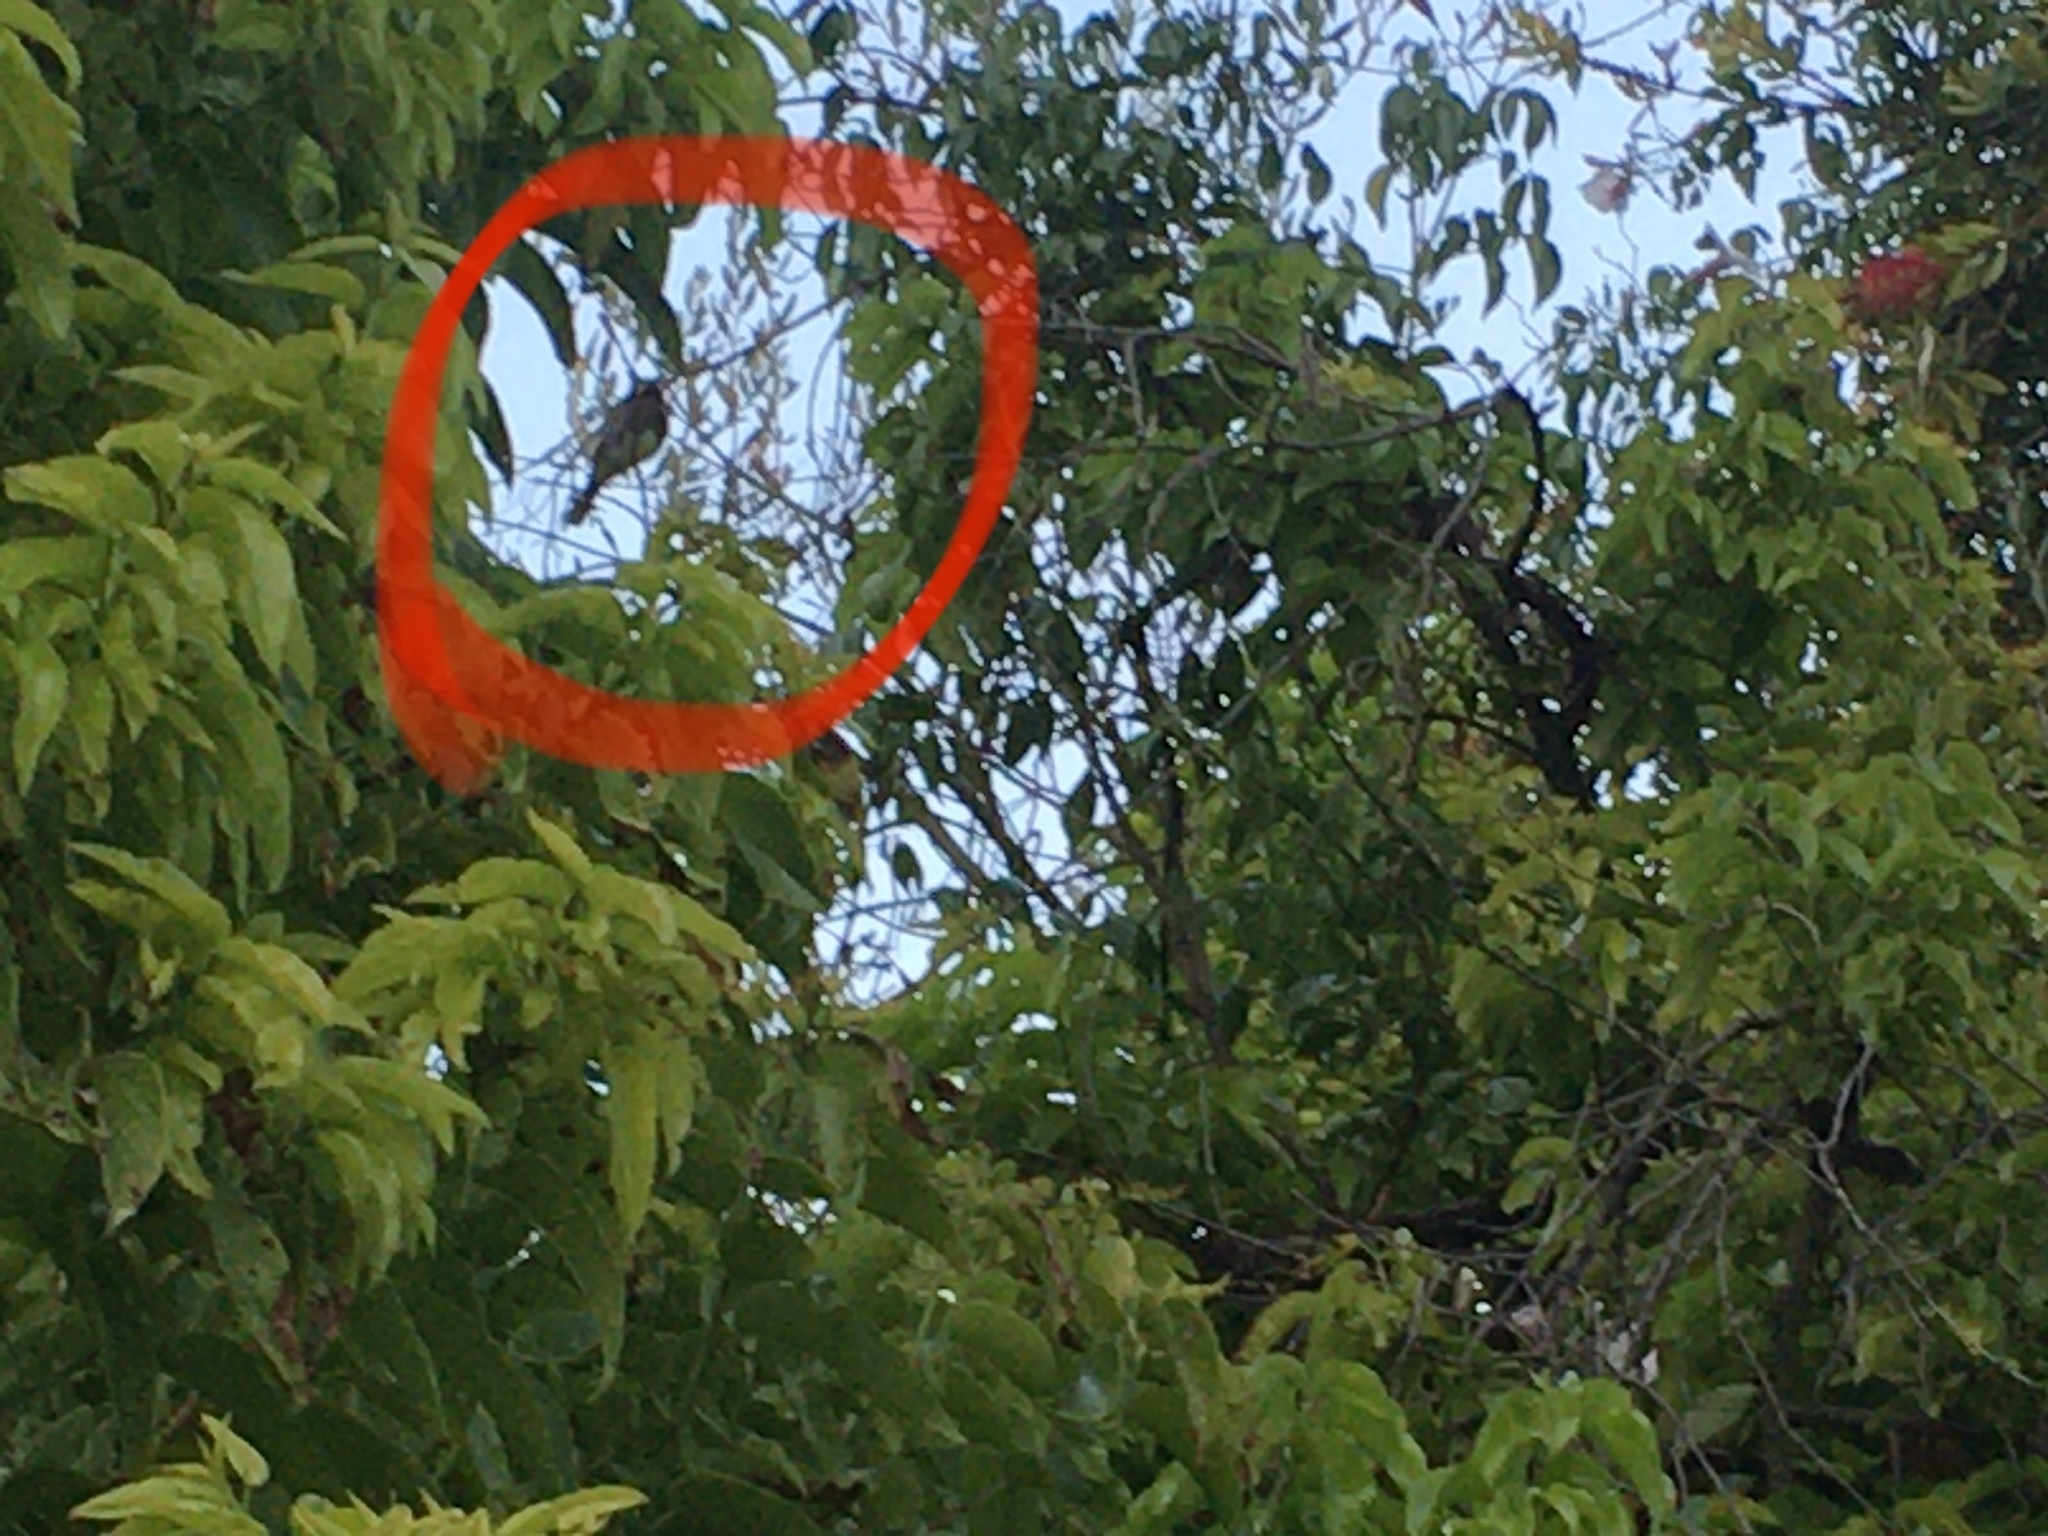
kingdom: Animalia
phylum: Chordata
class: Aves
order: Passeriformes
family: Tyrannidae
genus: Sayornis
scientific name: Sayornis nigricans
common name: Black phoebe
